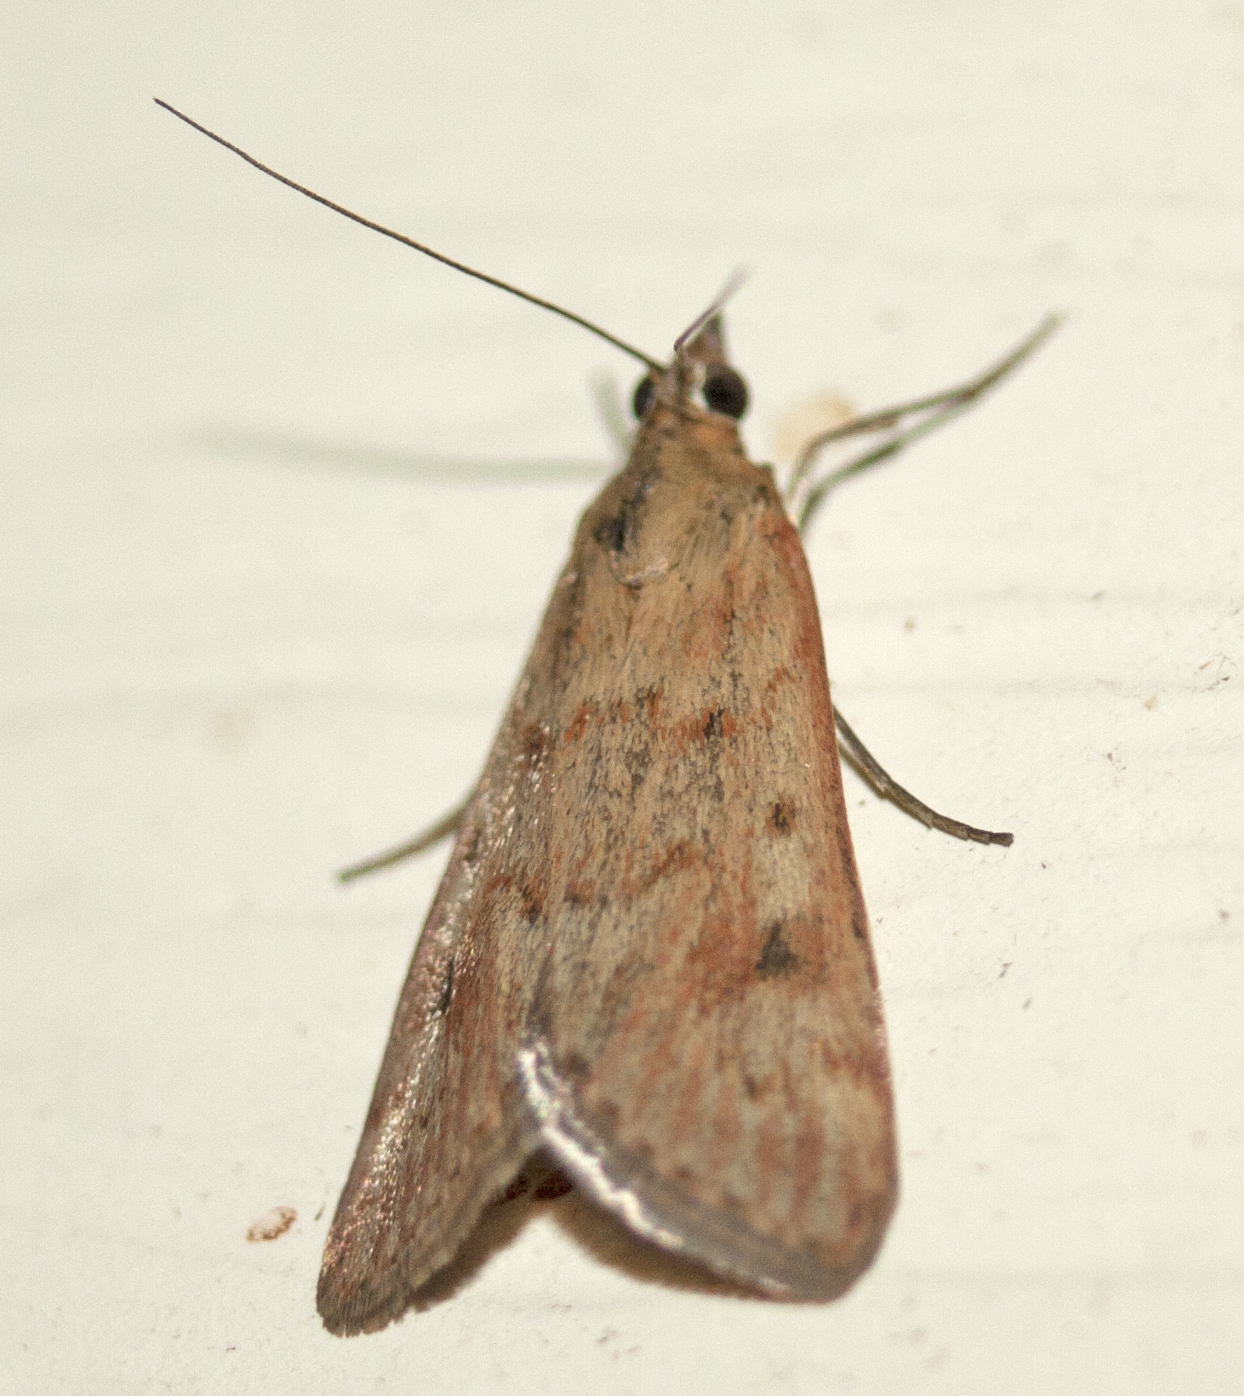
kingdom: Animalia
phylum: Arthropoda
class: Insecta
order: Lepidoptera
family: Crambidae
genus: Achyra
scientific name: Achyra affinitalis
